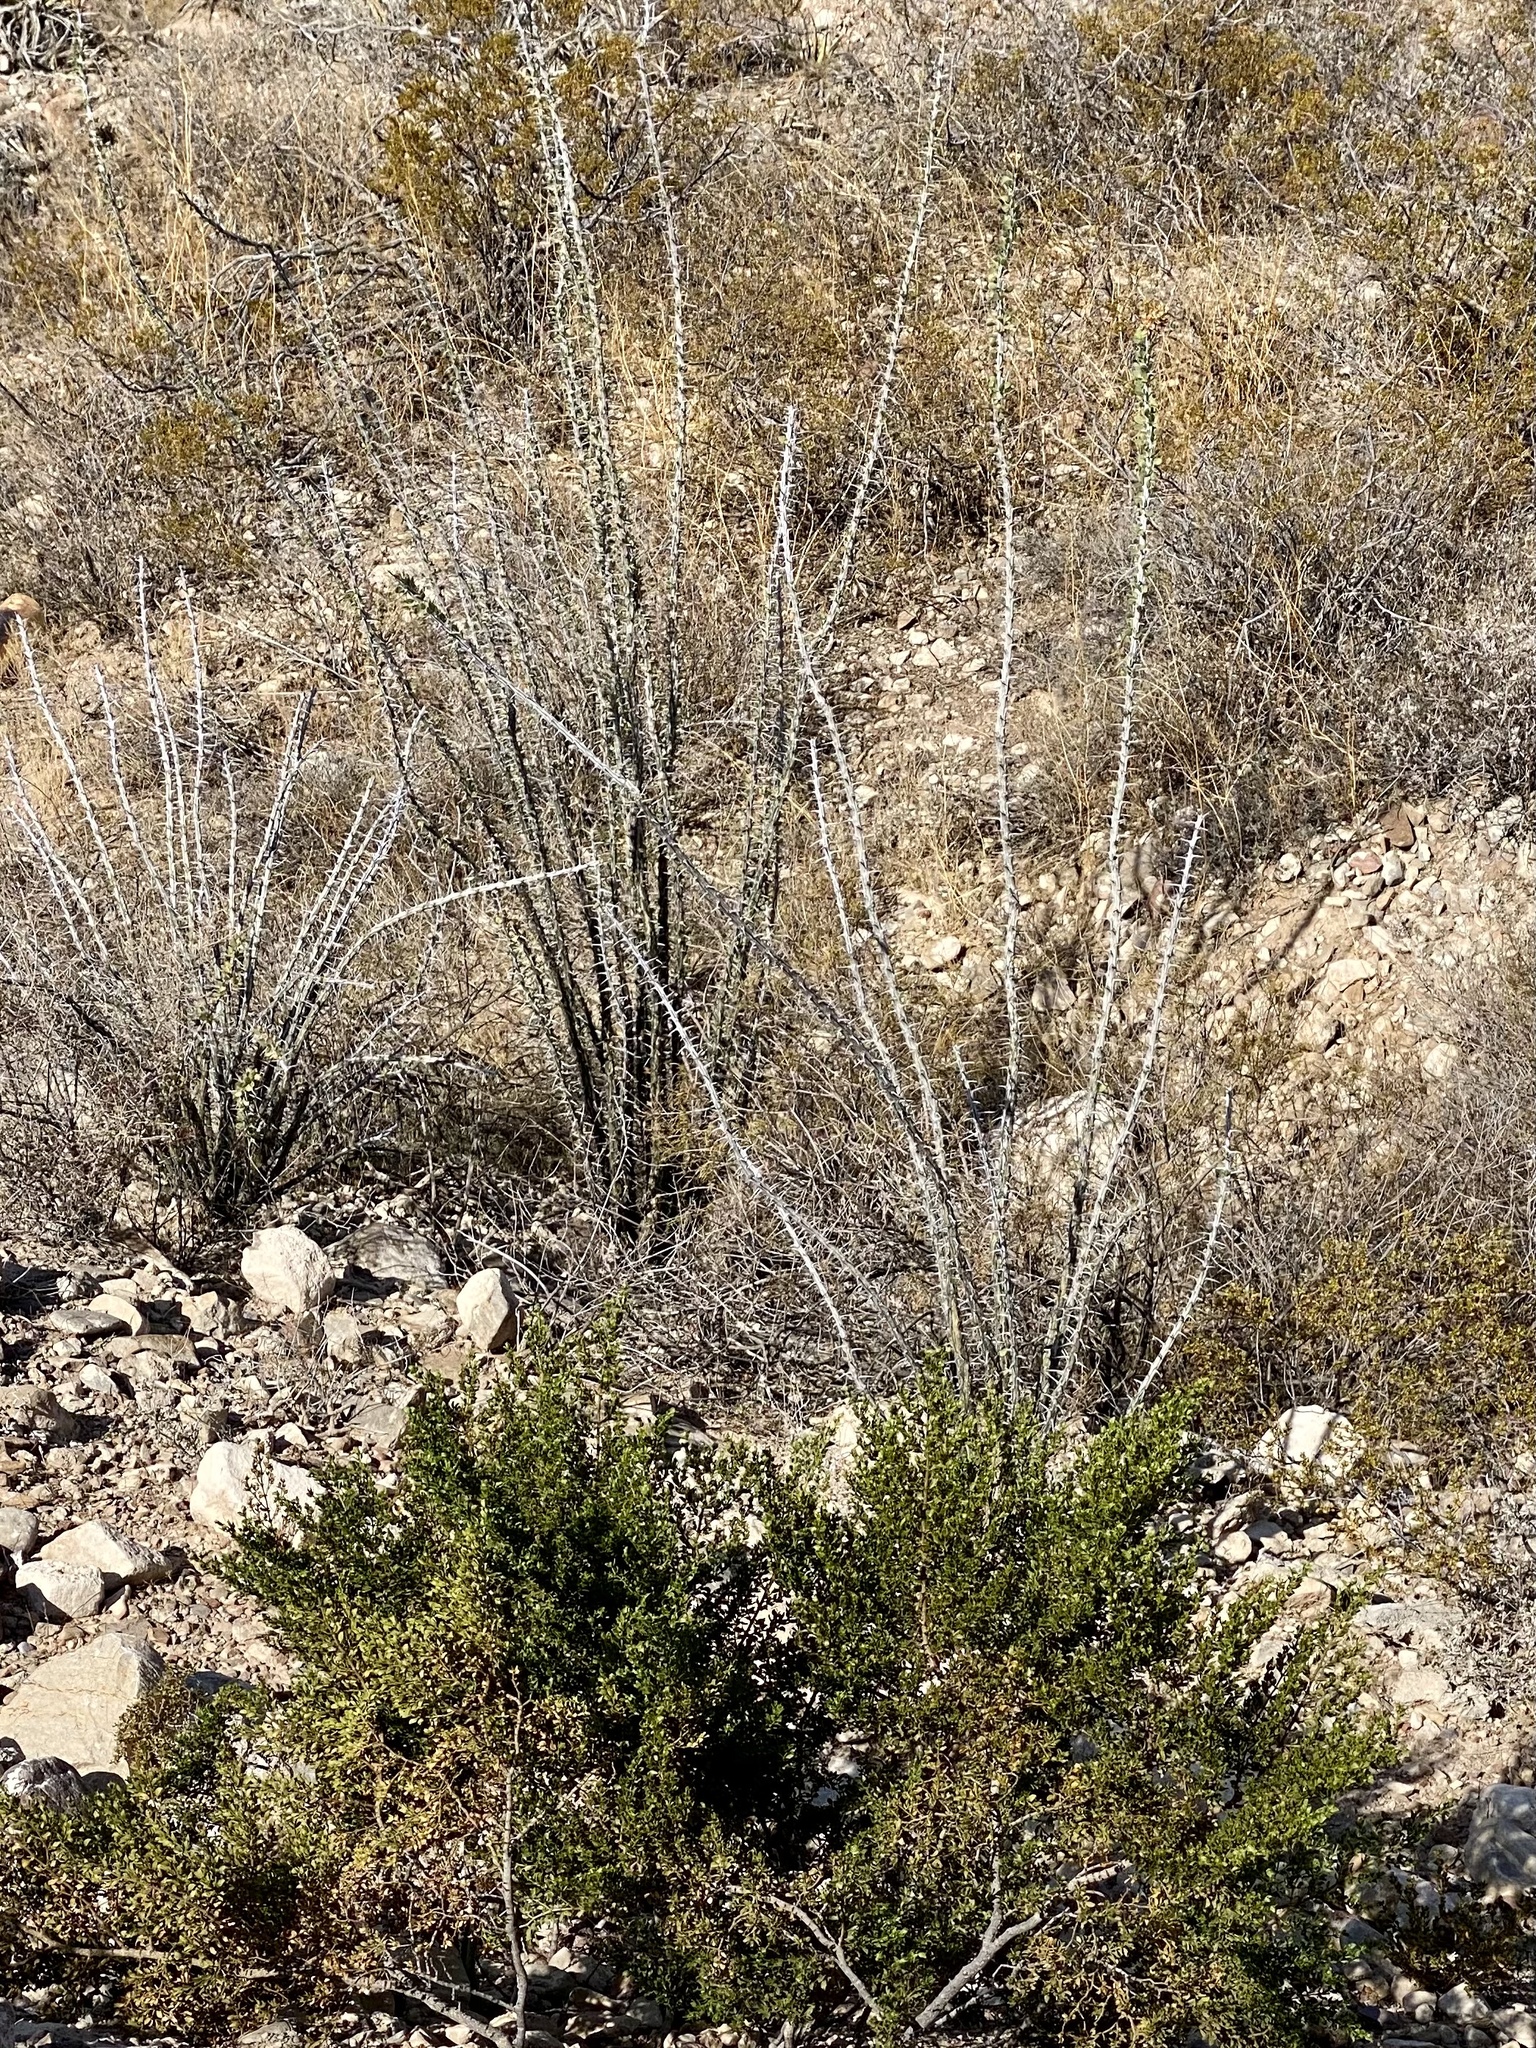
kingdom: Plantae
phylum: Tracheophyta
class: Magnoliopsida
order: Ericales
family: Fouquieriaceae
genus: Fouquieria
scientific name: Fouquieria splendens
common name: Vine-cactus
